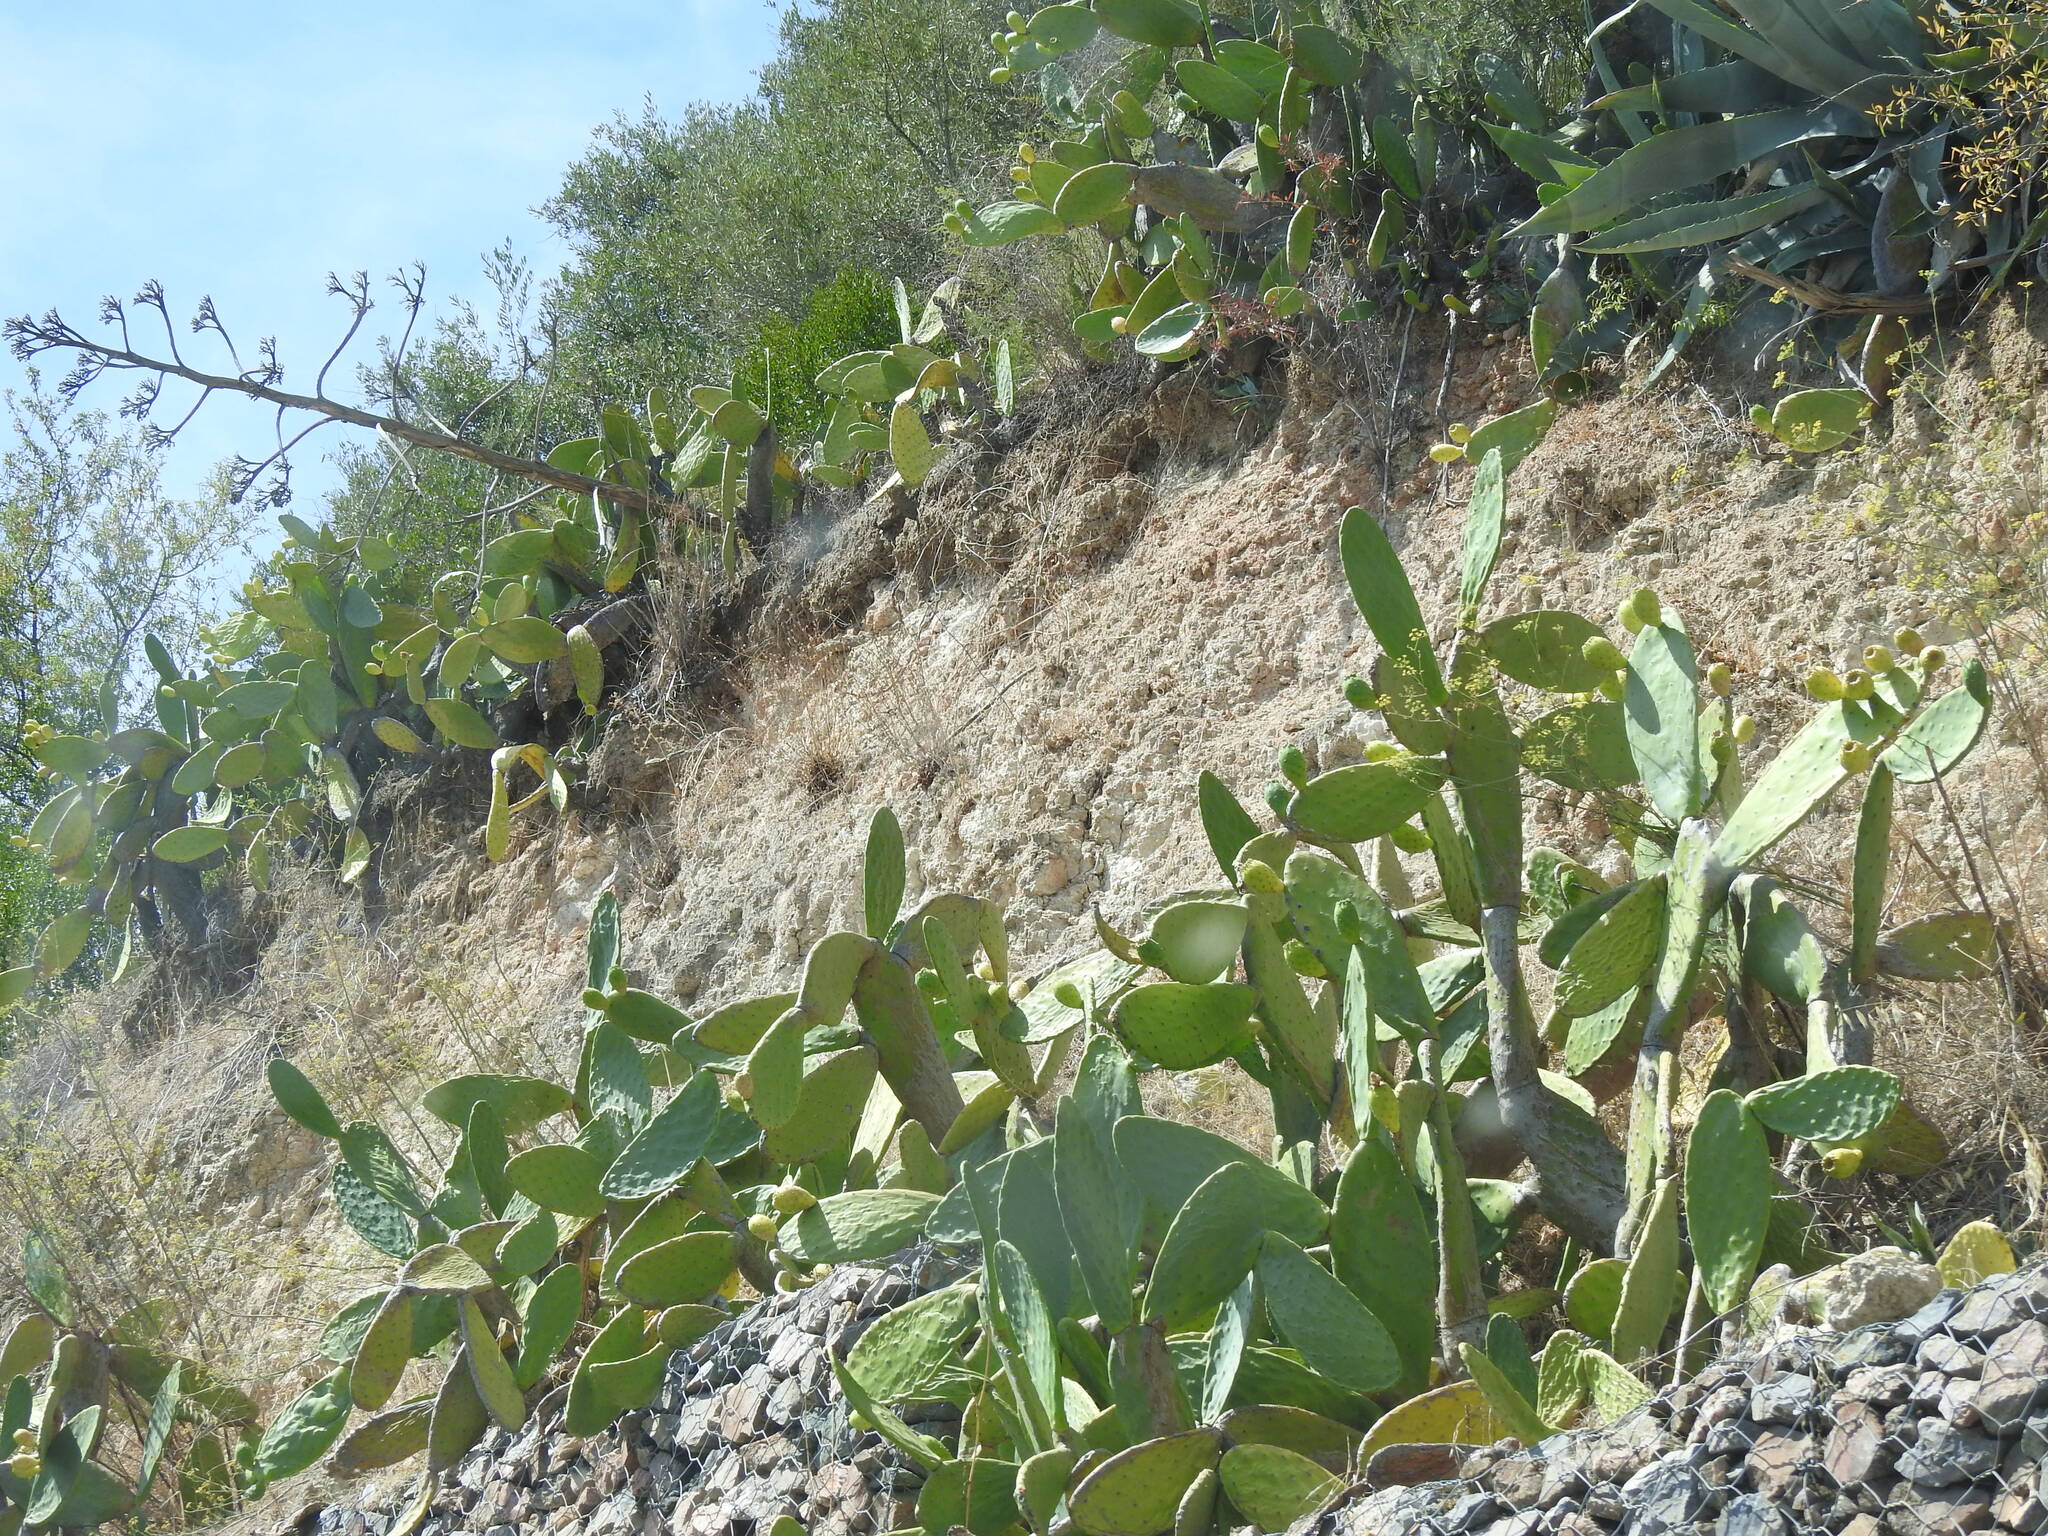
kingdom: Plantae
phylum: Tracheophyta
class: Magnoliopsida
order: Caryophyllales
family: Cactaceae
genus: Opuntia
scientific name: Opuntia ficus-indica
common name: Barbary fig
